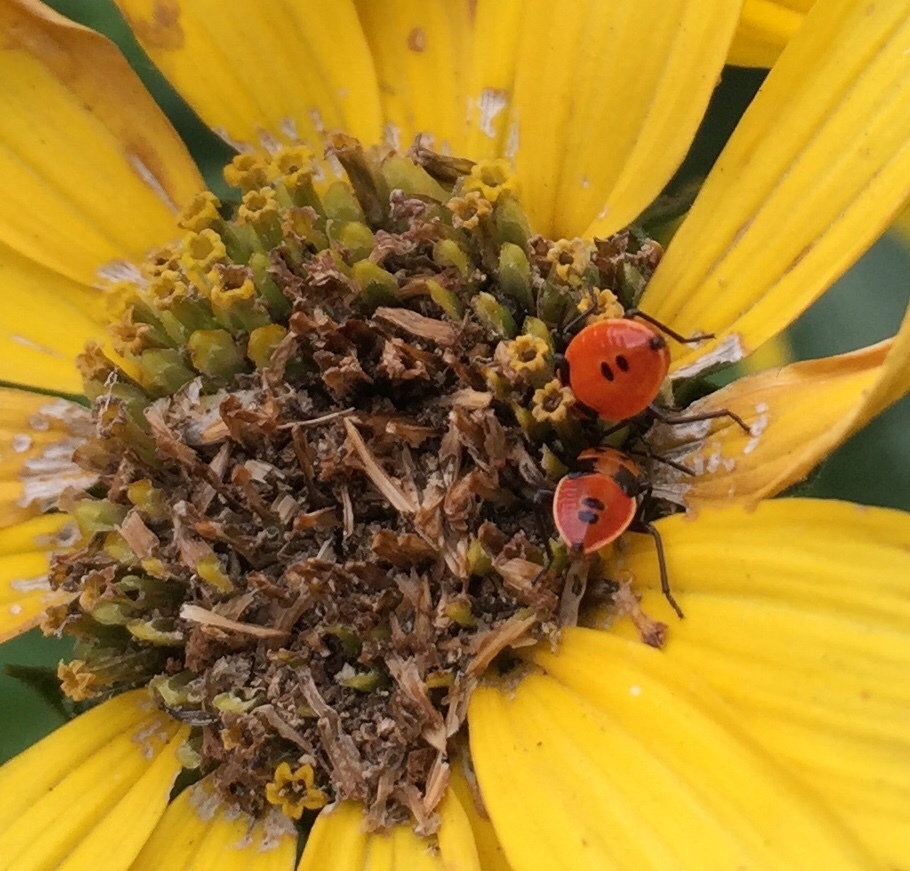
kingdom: Animalia
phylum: Arthropoda
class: Insecta
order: Hemiptera
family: Lygaeidae
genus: Lygaeus
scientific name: Lygaeus turcicus
